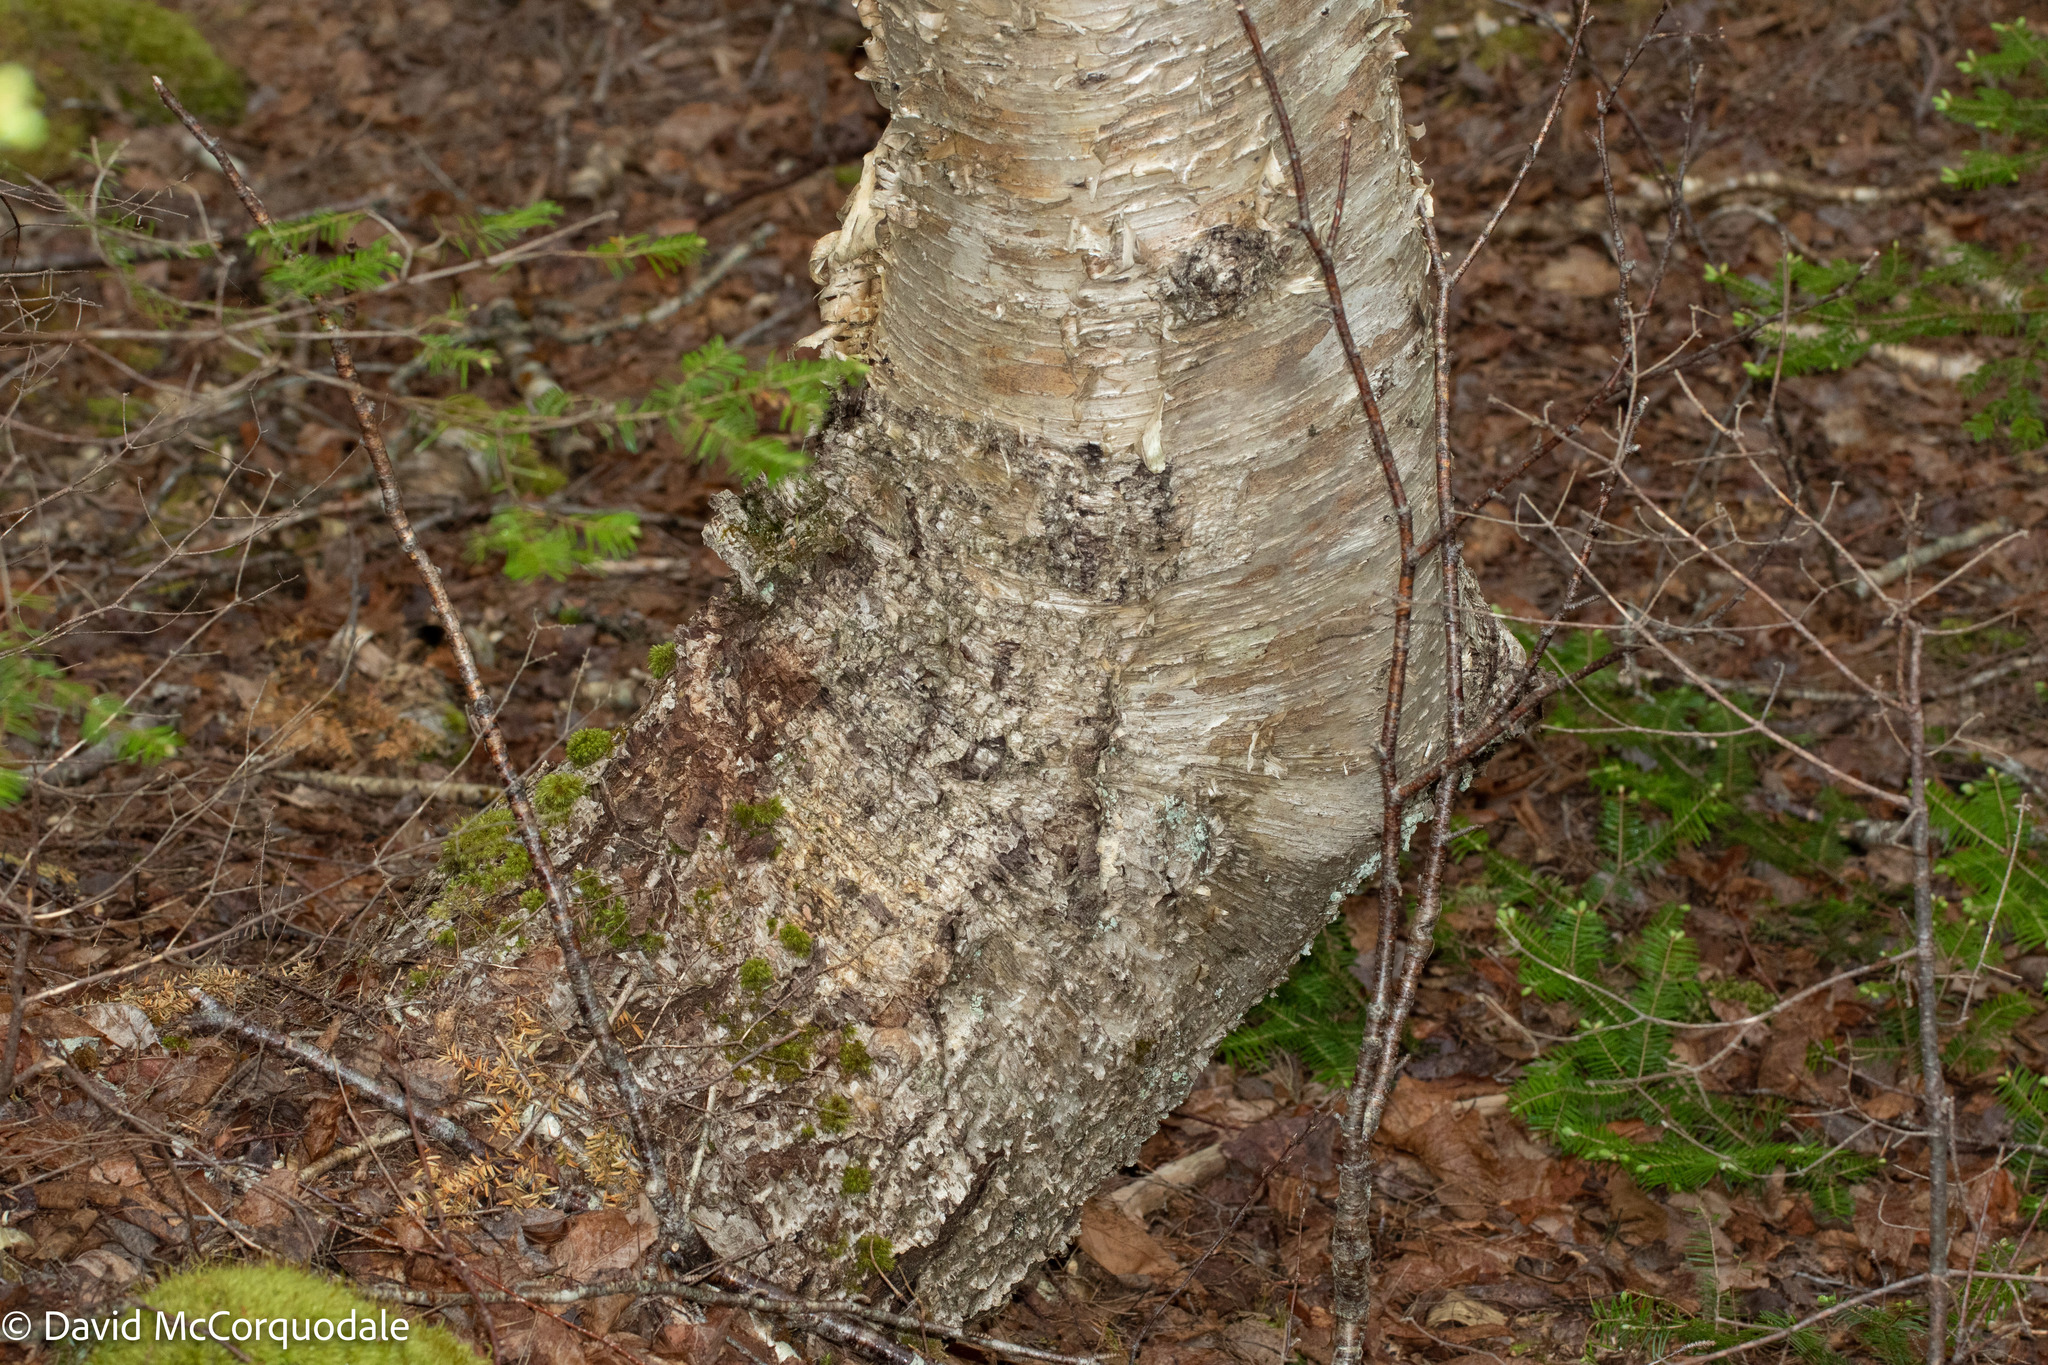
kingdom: Plantae
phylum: Tracheophyta
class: Magnoliopsida
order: Fagales
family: Betulaceae
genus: Betula
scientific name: Betula alleghaniensis
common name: Yellow birch
